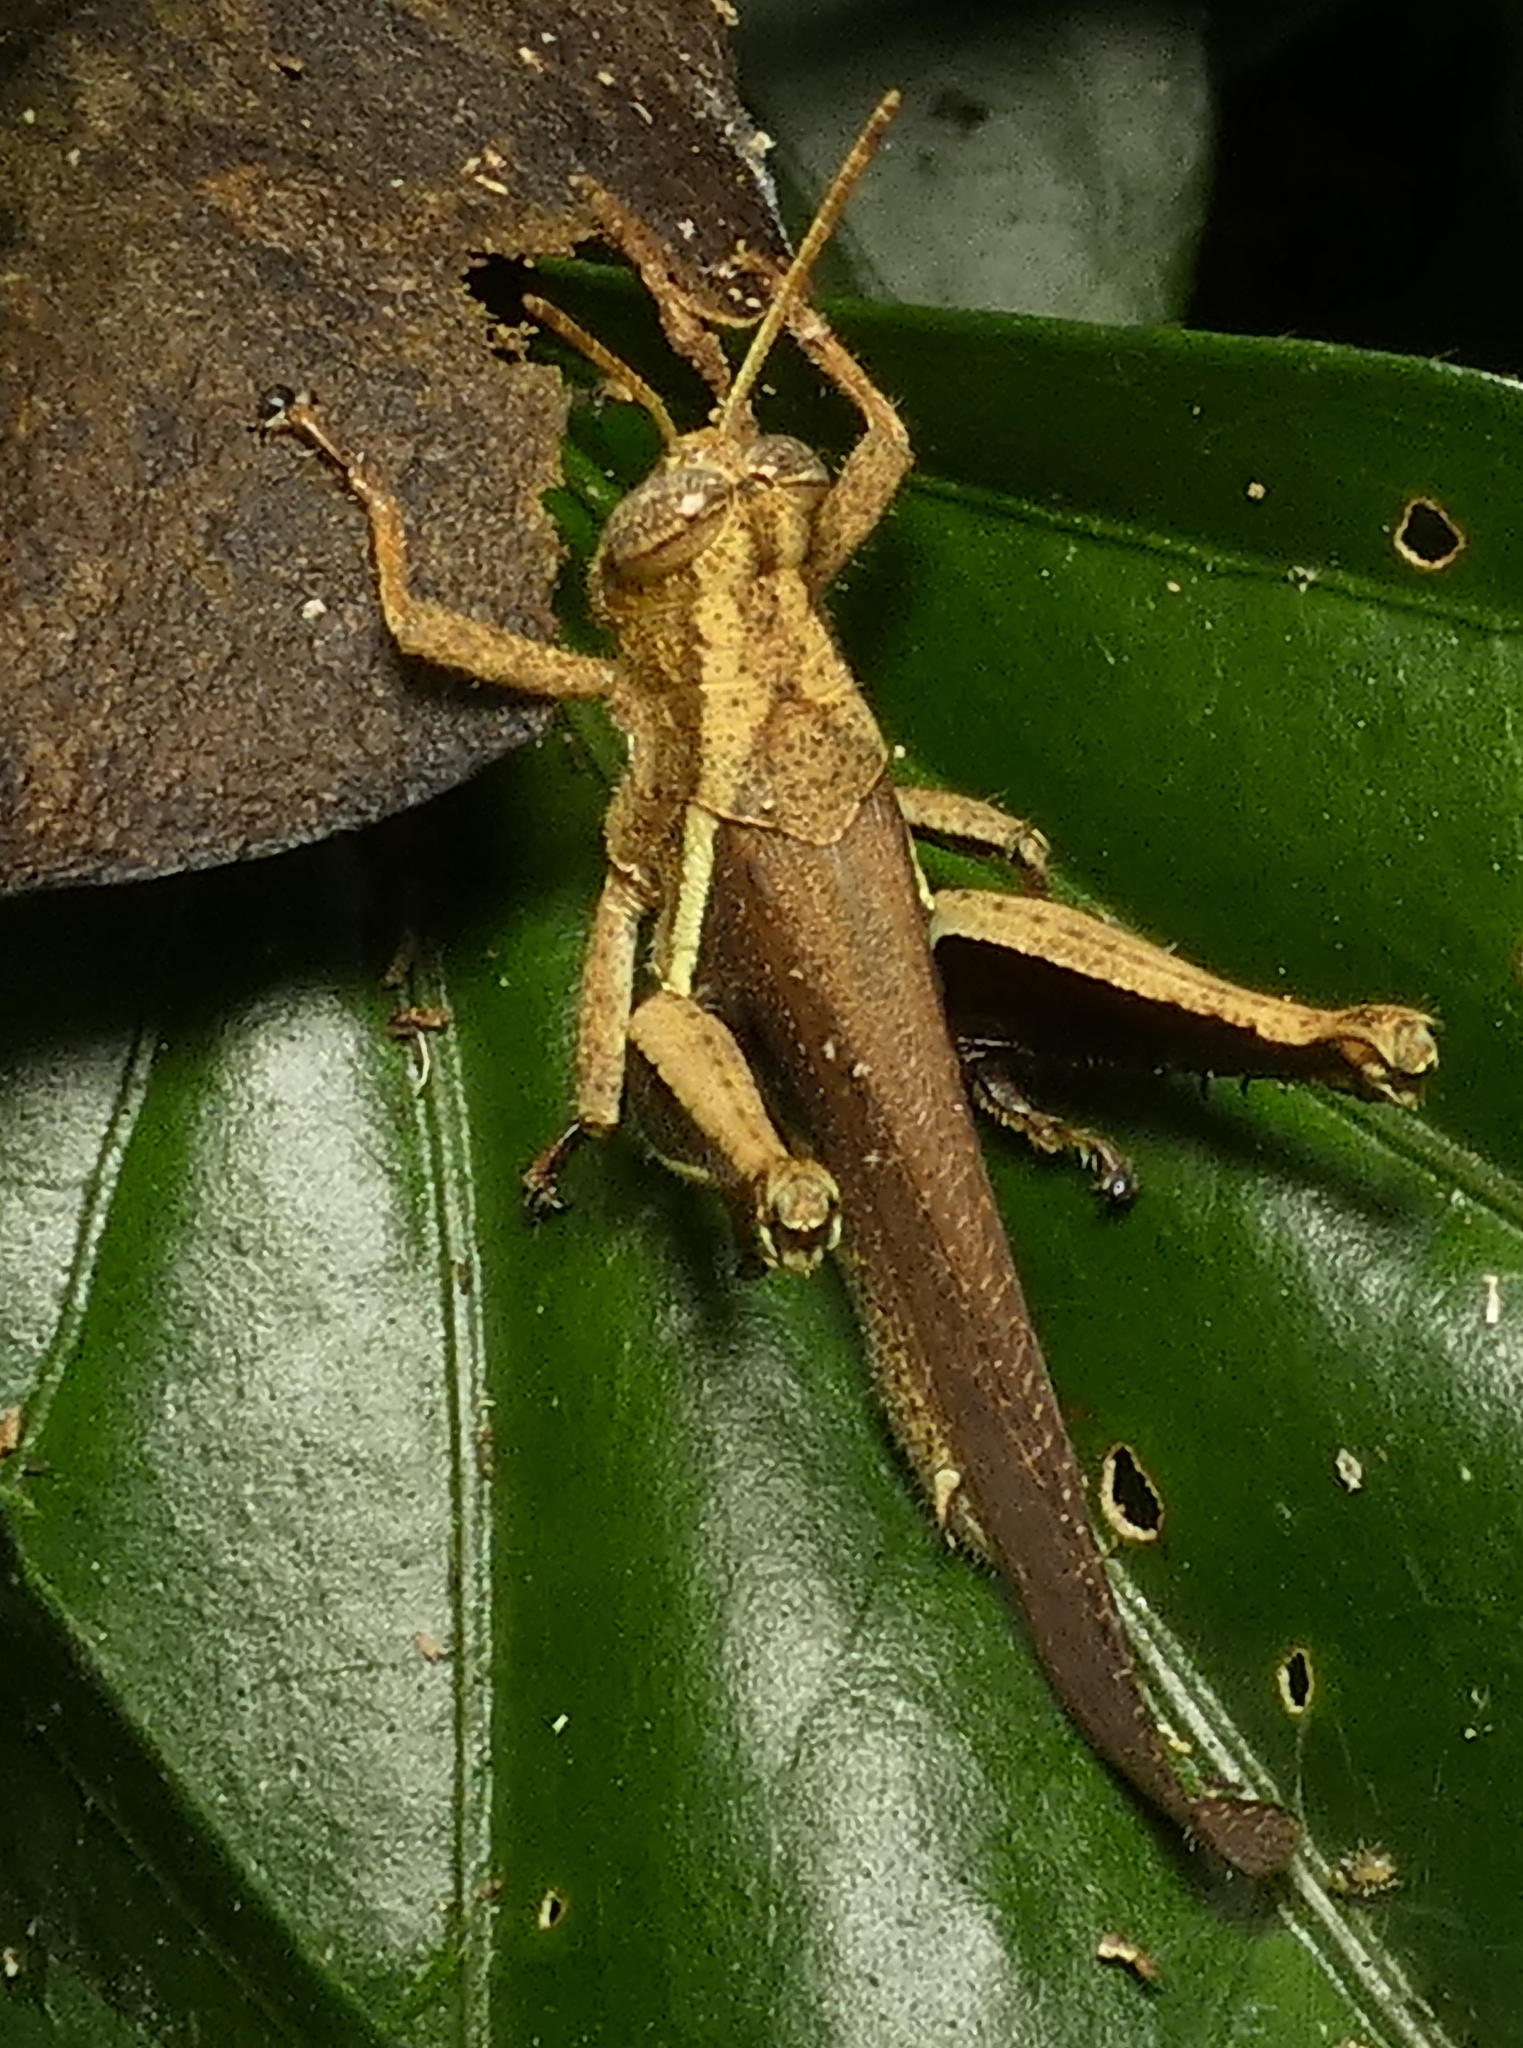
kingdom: Animalia
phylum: Arthropoda
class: Insecta
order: Orthoptera
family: Acrididae
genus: Abracris
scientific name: Abracris flavolineata
